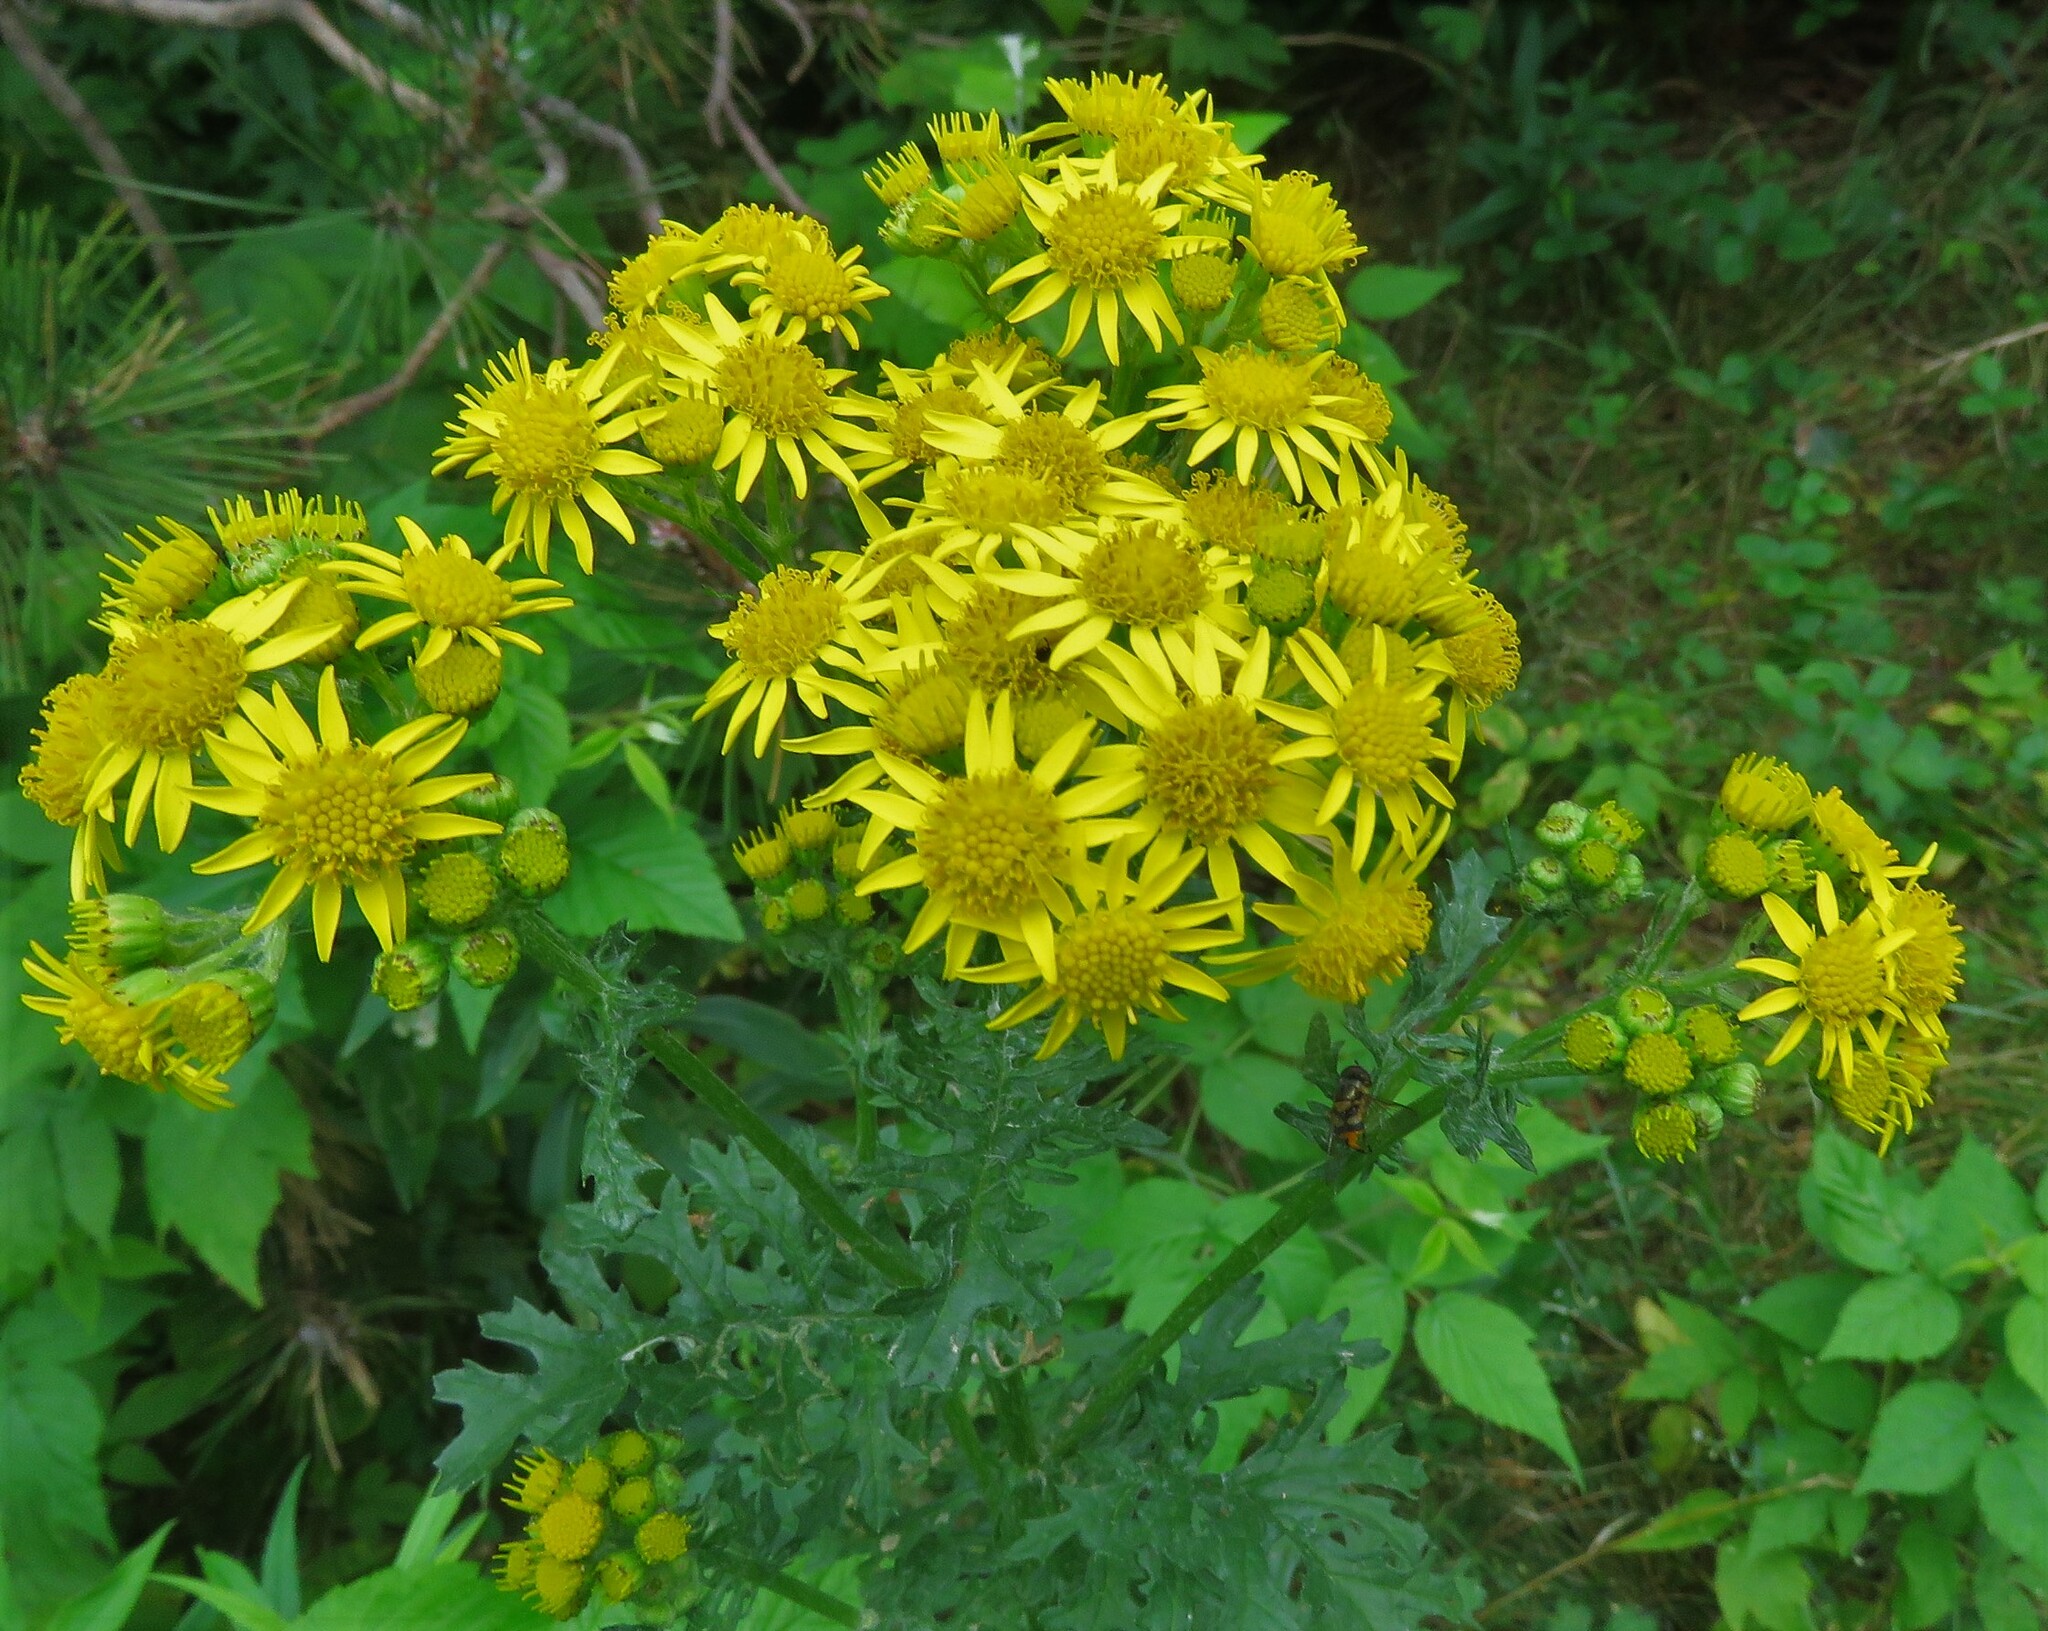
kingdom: Plantae
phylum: Tracheophyta
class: Magnoliopsida
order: Asterales
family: Asteraceae
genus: Jacobaea
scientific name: Jacobaea vulgaris
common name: Stinking willie
